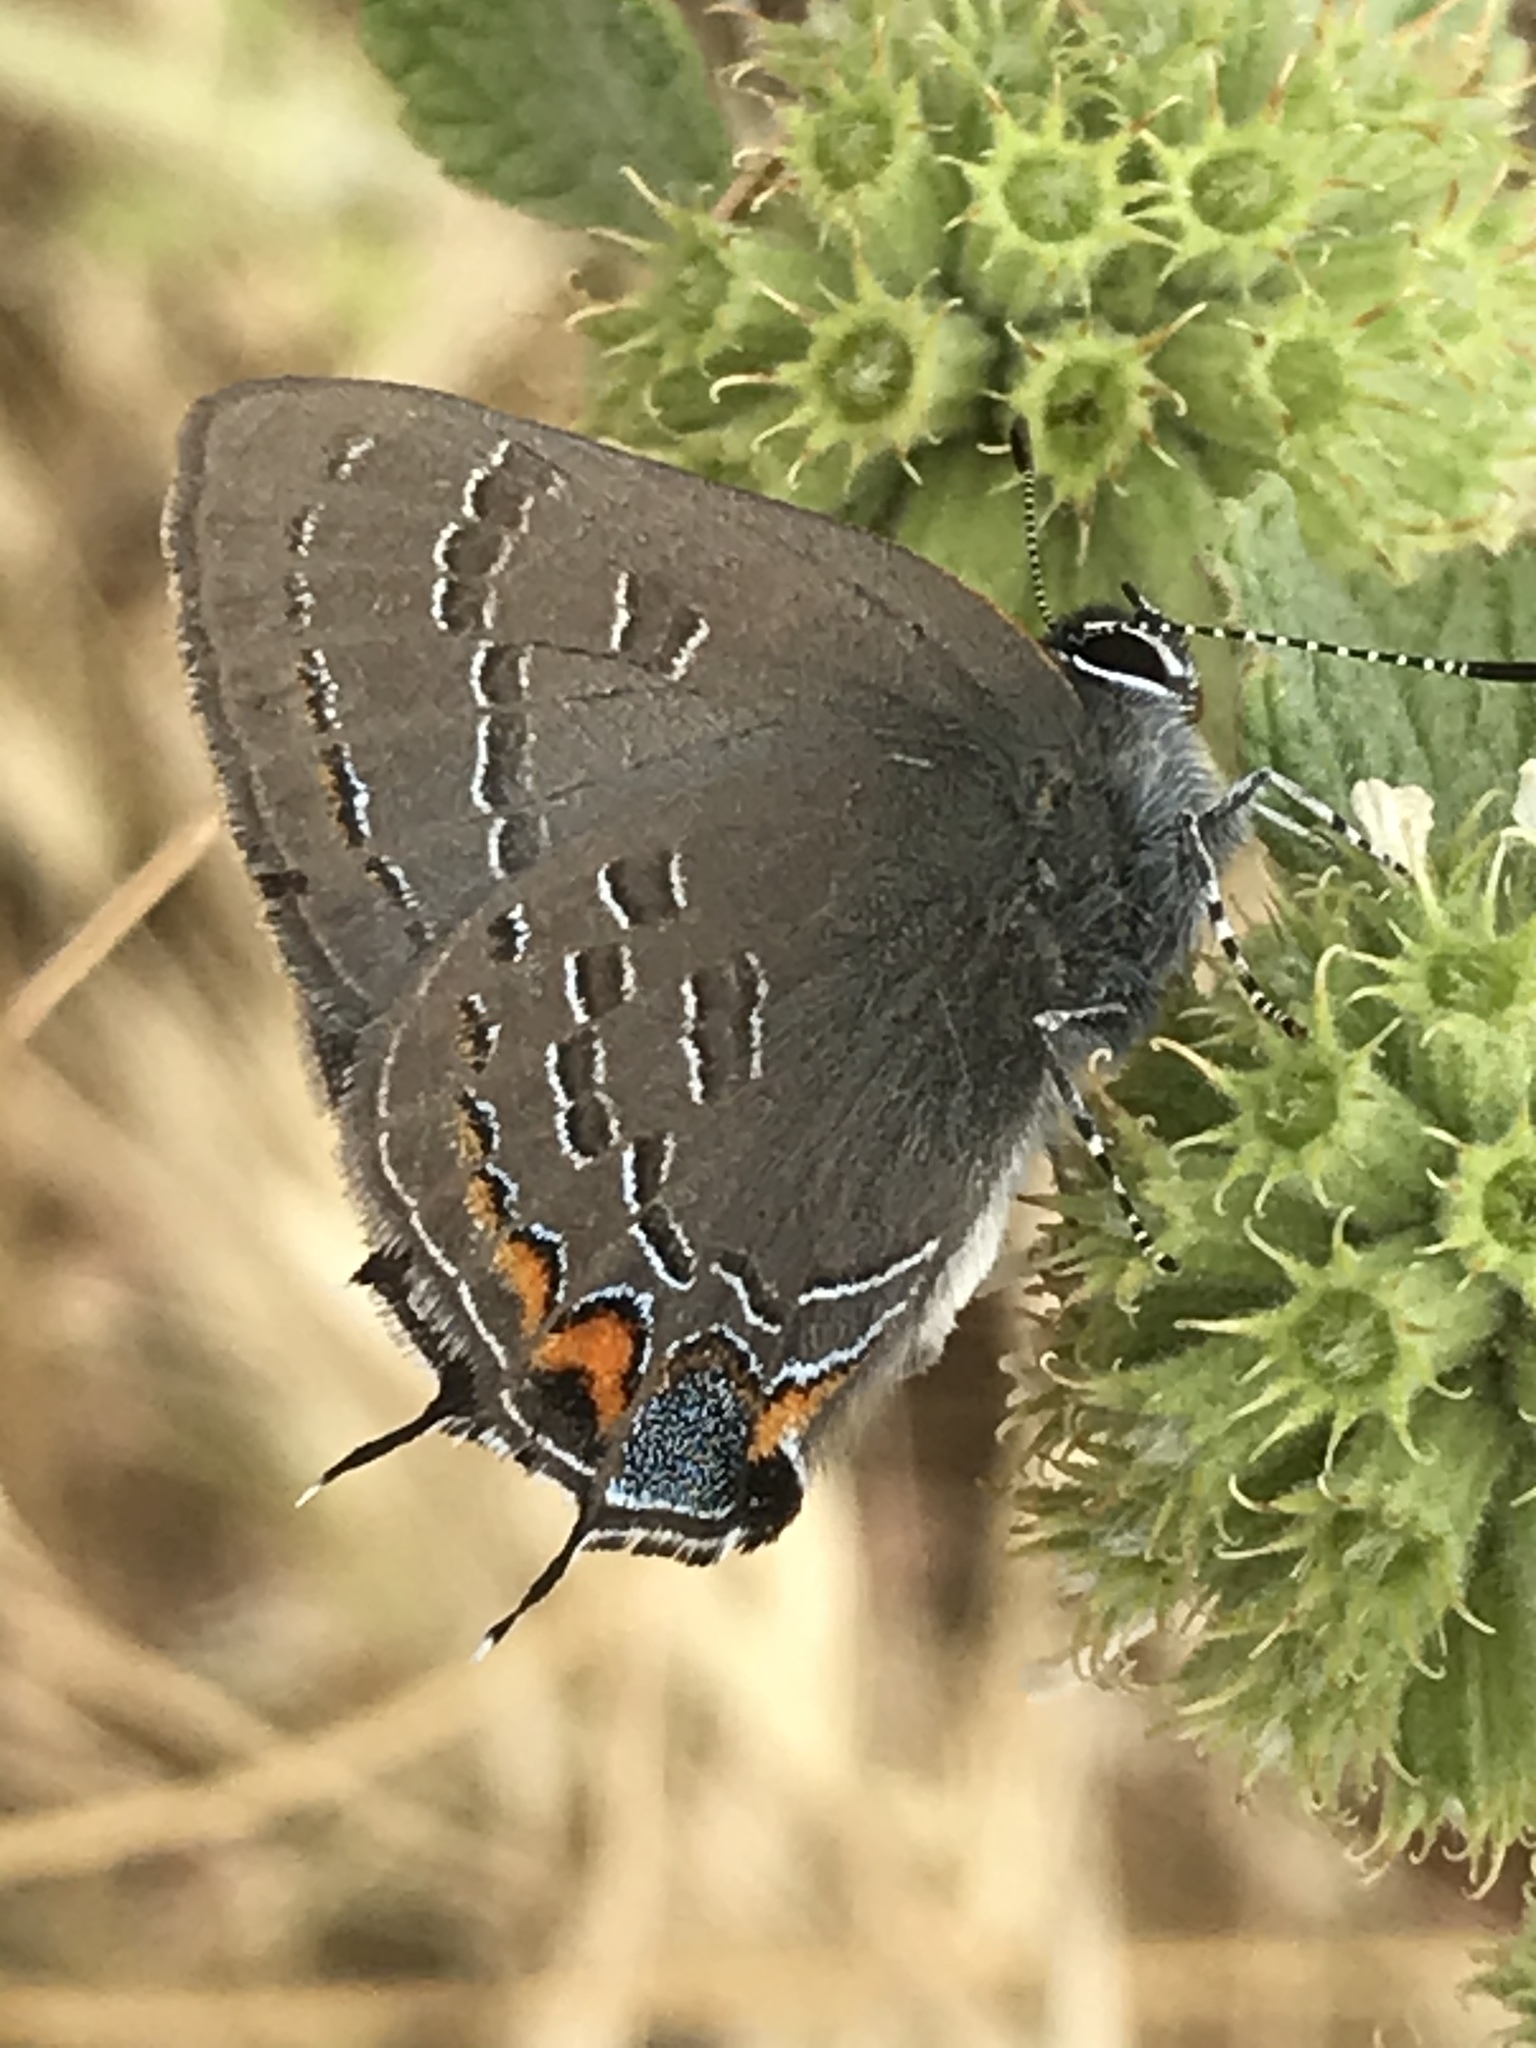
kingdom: Animalia
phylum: Arthropoda
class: Insecta
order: Lepidoptera
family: Lycaenidae
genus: Satyrium
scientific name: Satyrium calanus
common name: Banded hairstreak
